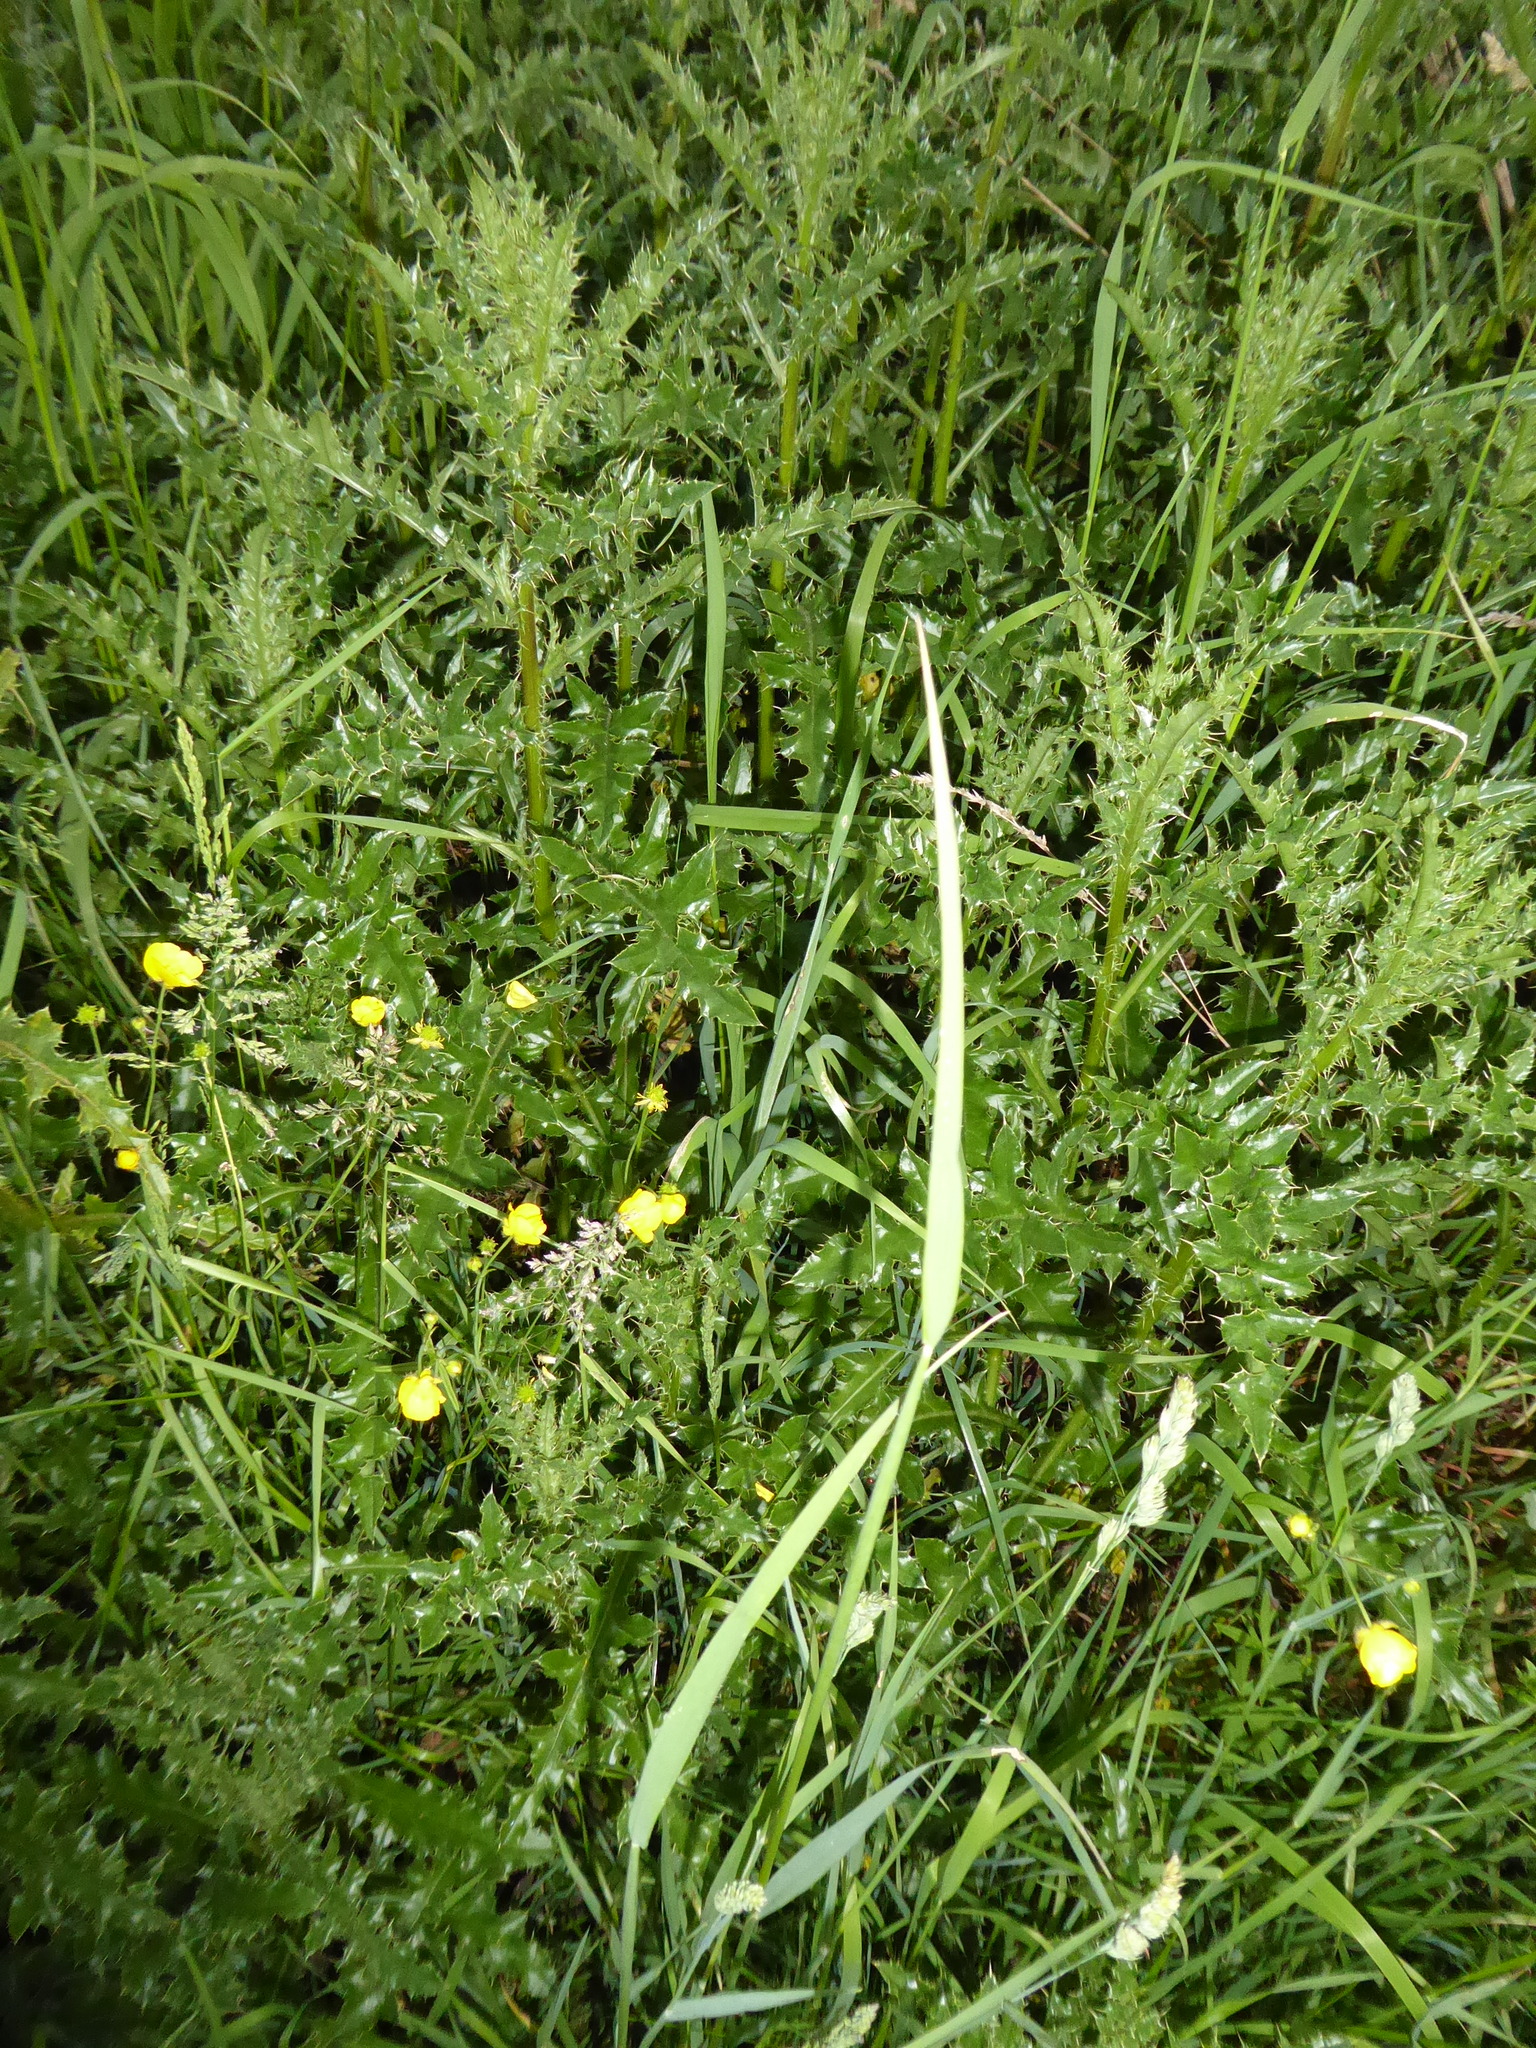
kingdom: Plantae
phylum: Tracheophyta
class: Magnoliopsida
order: Asterales
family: Asteraceae
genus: Cirsium
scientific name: Cirsium arvense
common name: Creeping thistle
